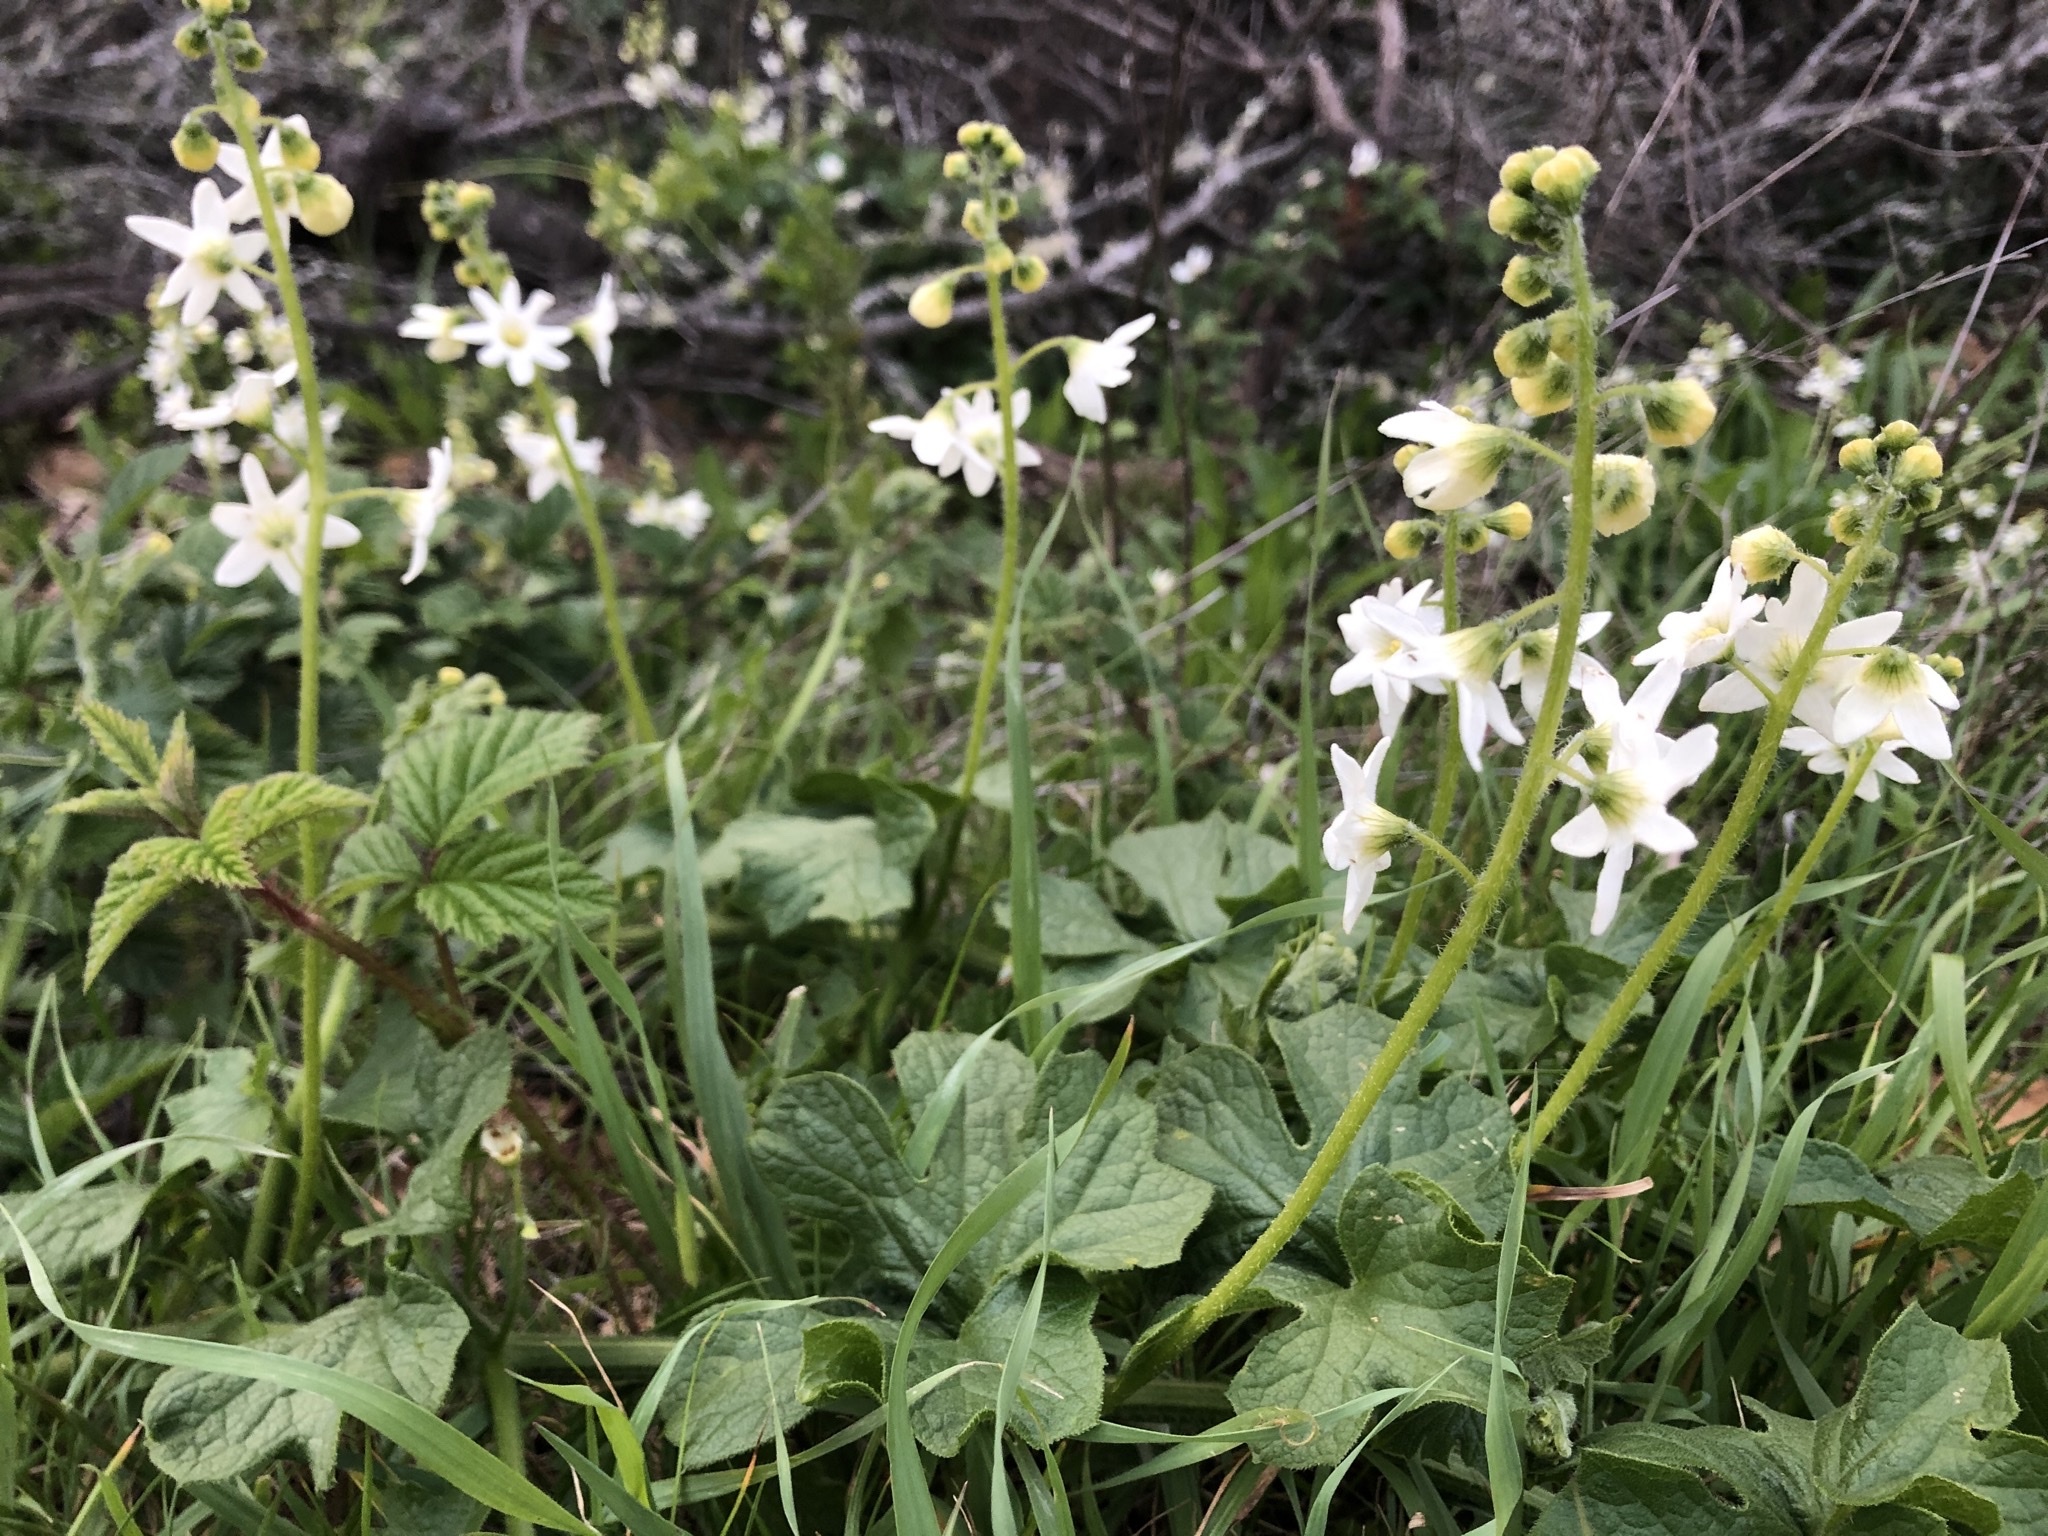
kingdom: Plantae
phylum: Tracheophyta
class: Magnoliopsida
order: Cucurbitales
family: Cucurbitaceae
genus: Marah
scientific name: Marah oregana
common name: Coastal manroot
